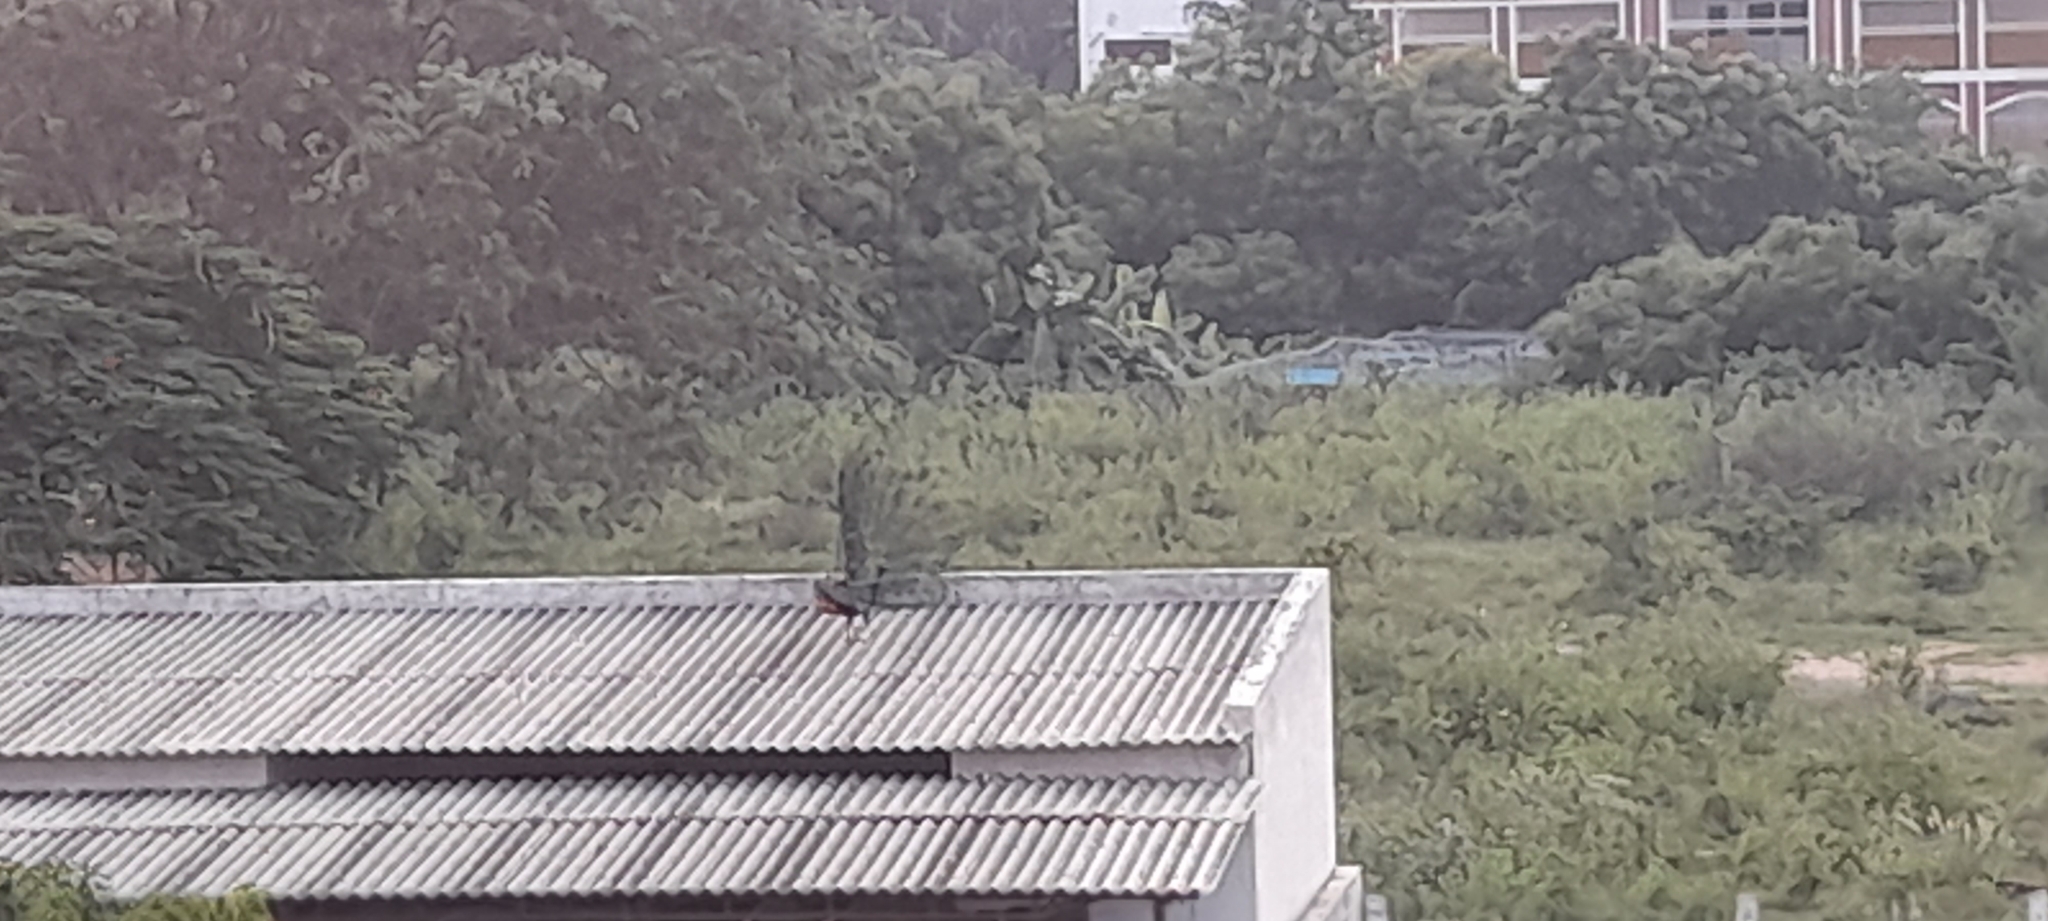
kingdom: Animalia
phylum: Chordata
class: Aves
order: Galliformes
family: Phasianidae
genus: Pavo
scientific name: Pavo cristatus
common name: Indian peafowl
